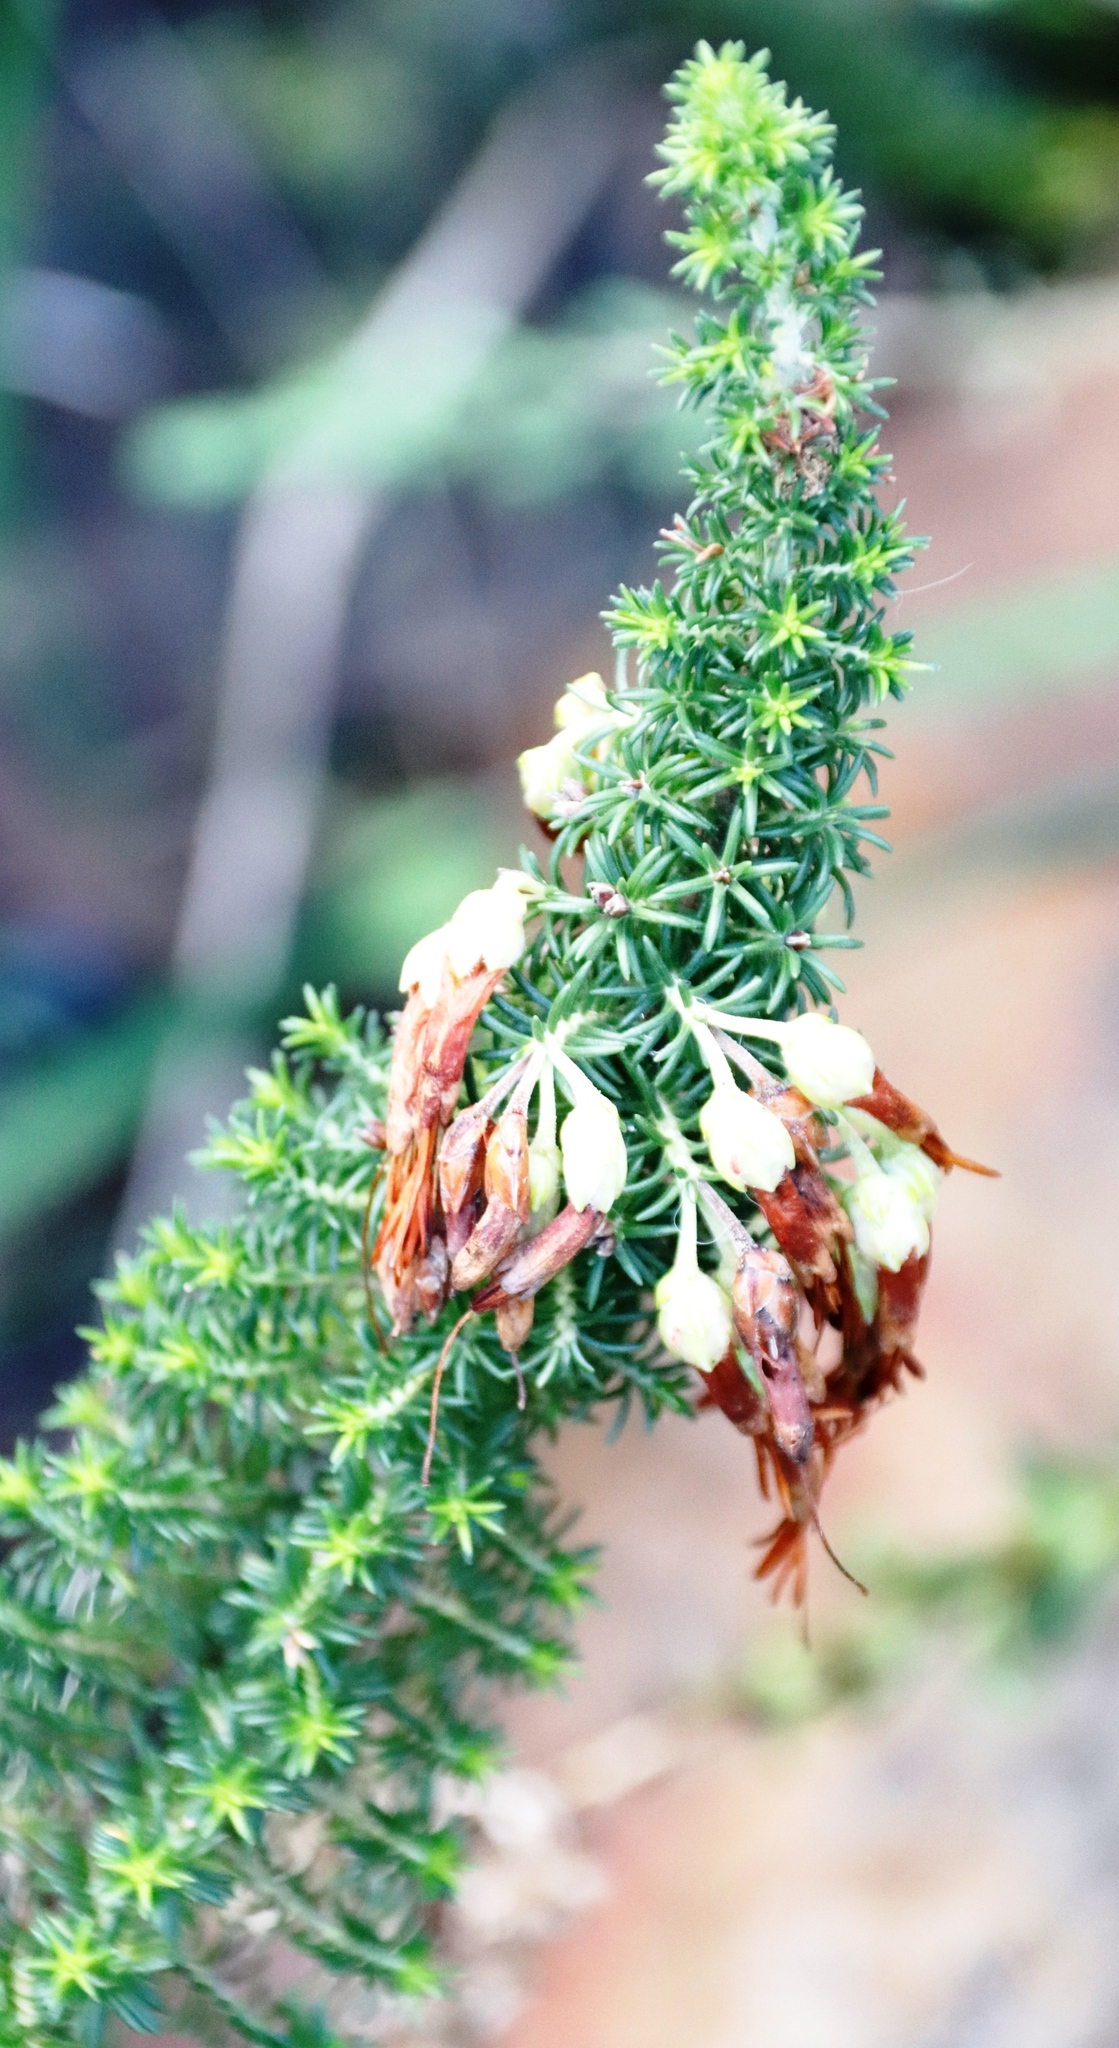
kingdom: Plantae
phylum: Tracheophyta
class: Magnoliopsida
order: Ericales
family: Ericaceae
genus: Erica
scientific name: Erica coccinea
